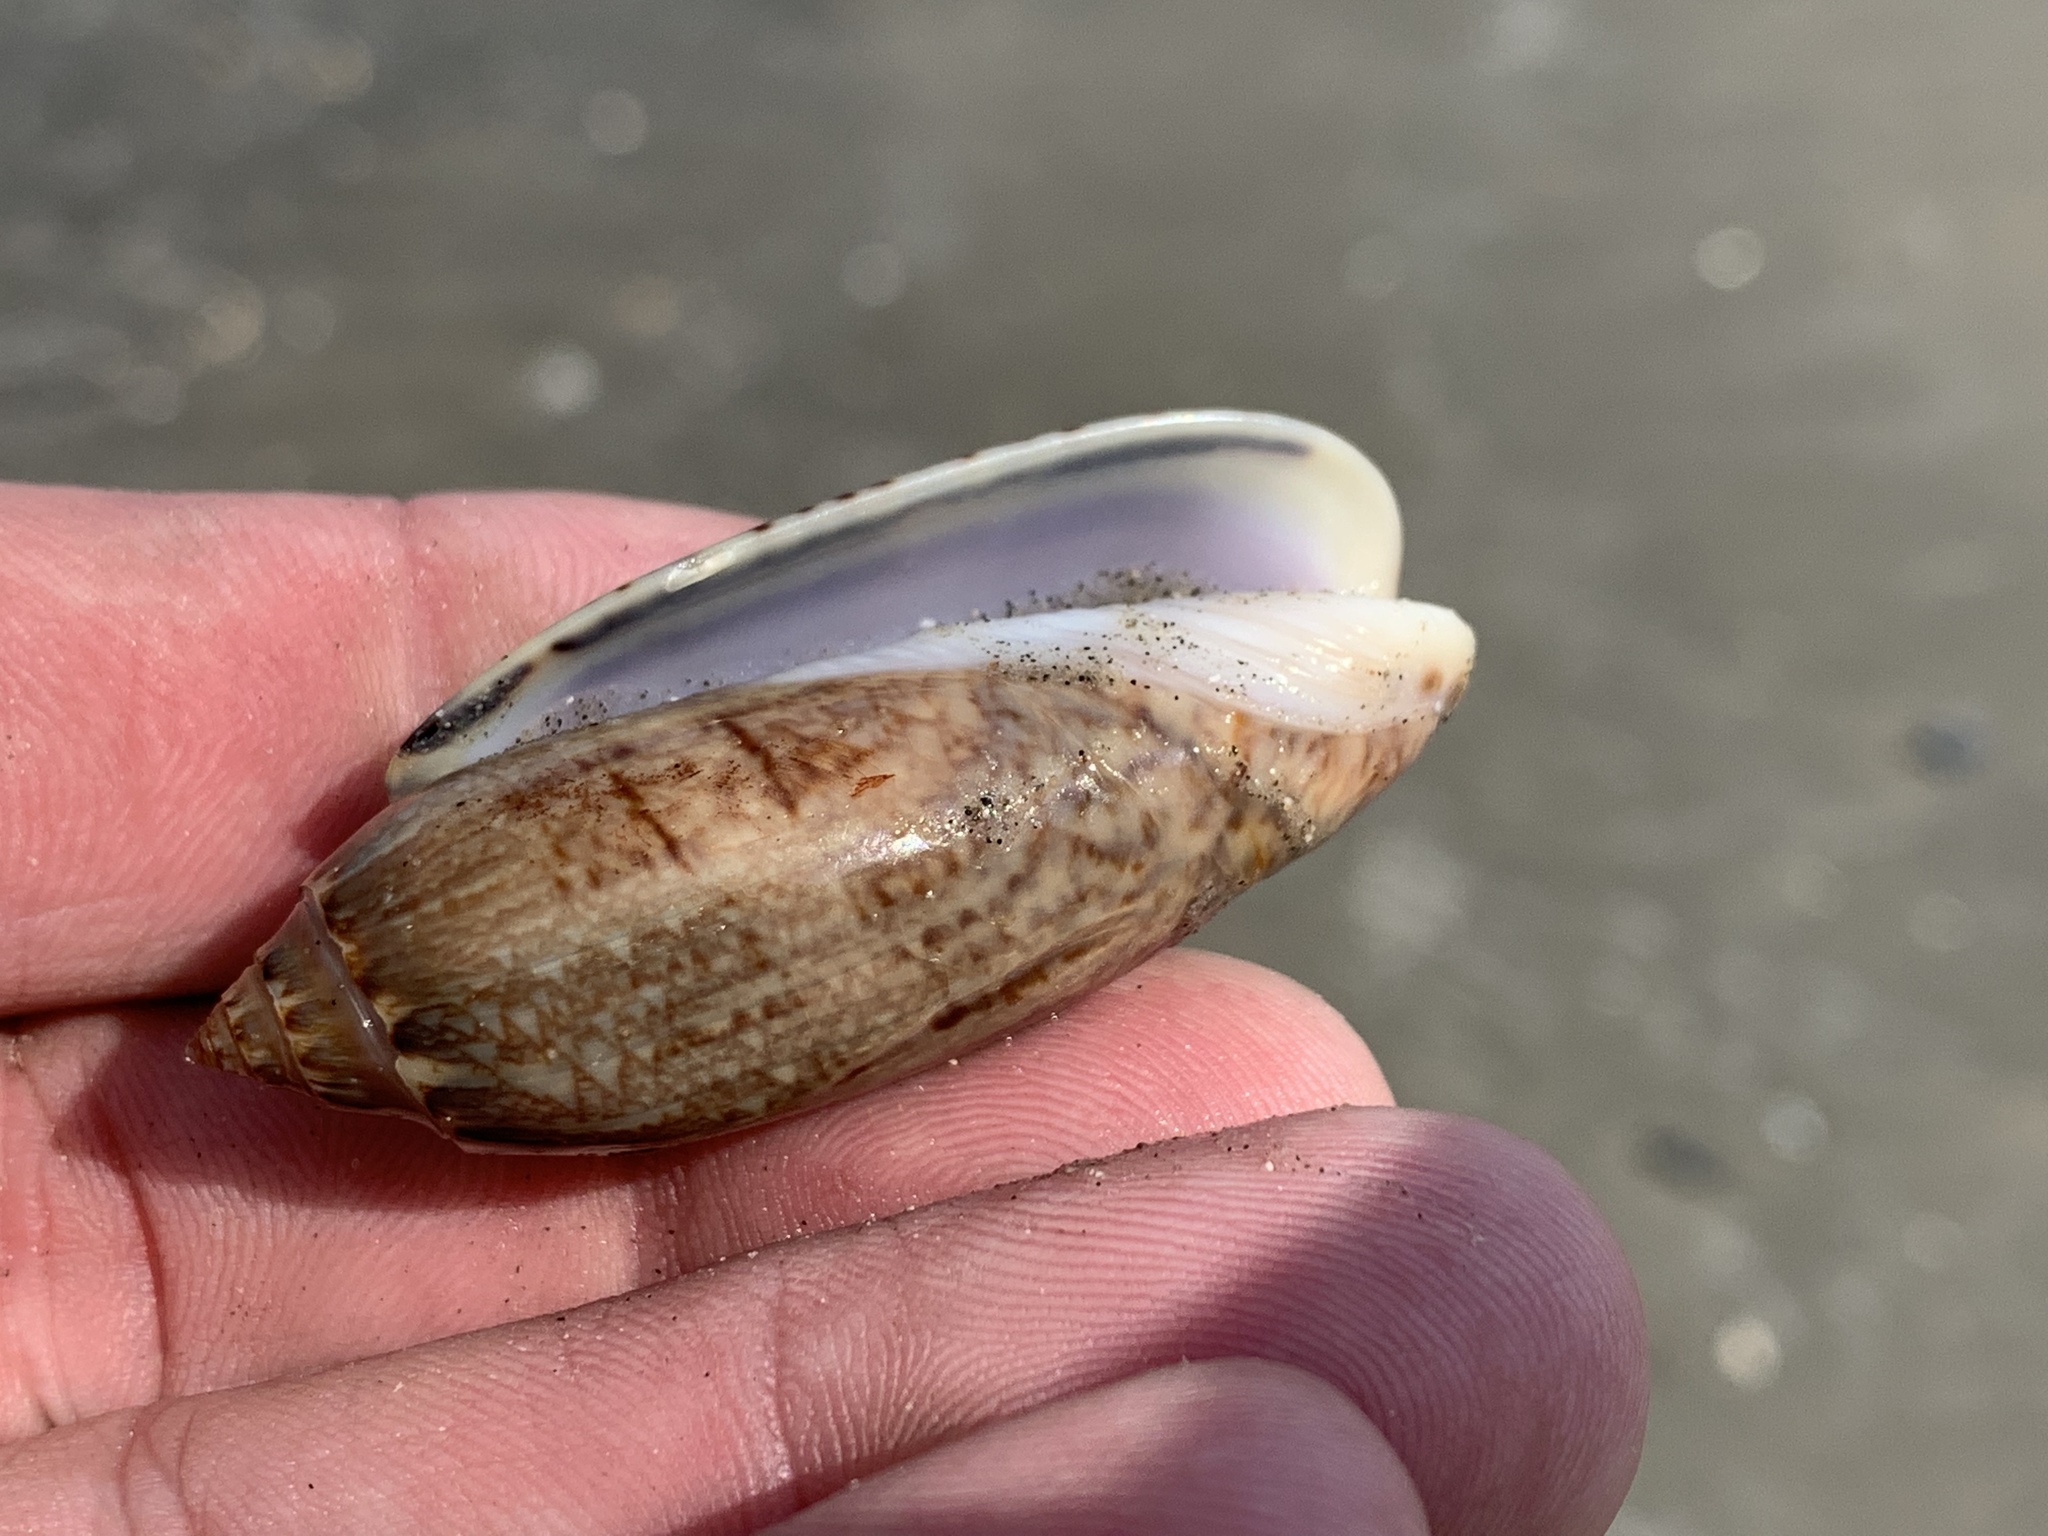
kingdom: Animalia
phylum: Mollusca
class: Gastropoda
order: Neogastropoda
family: Olividae
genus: Oliva
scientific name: Oliva sayana
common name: Lettered olive
